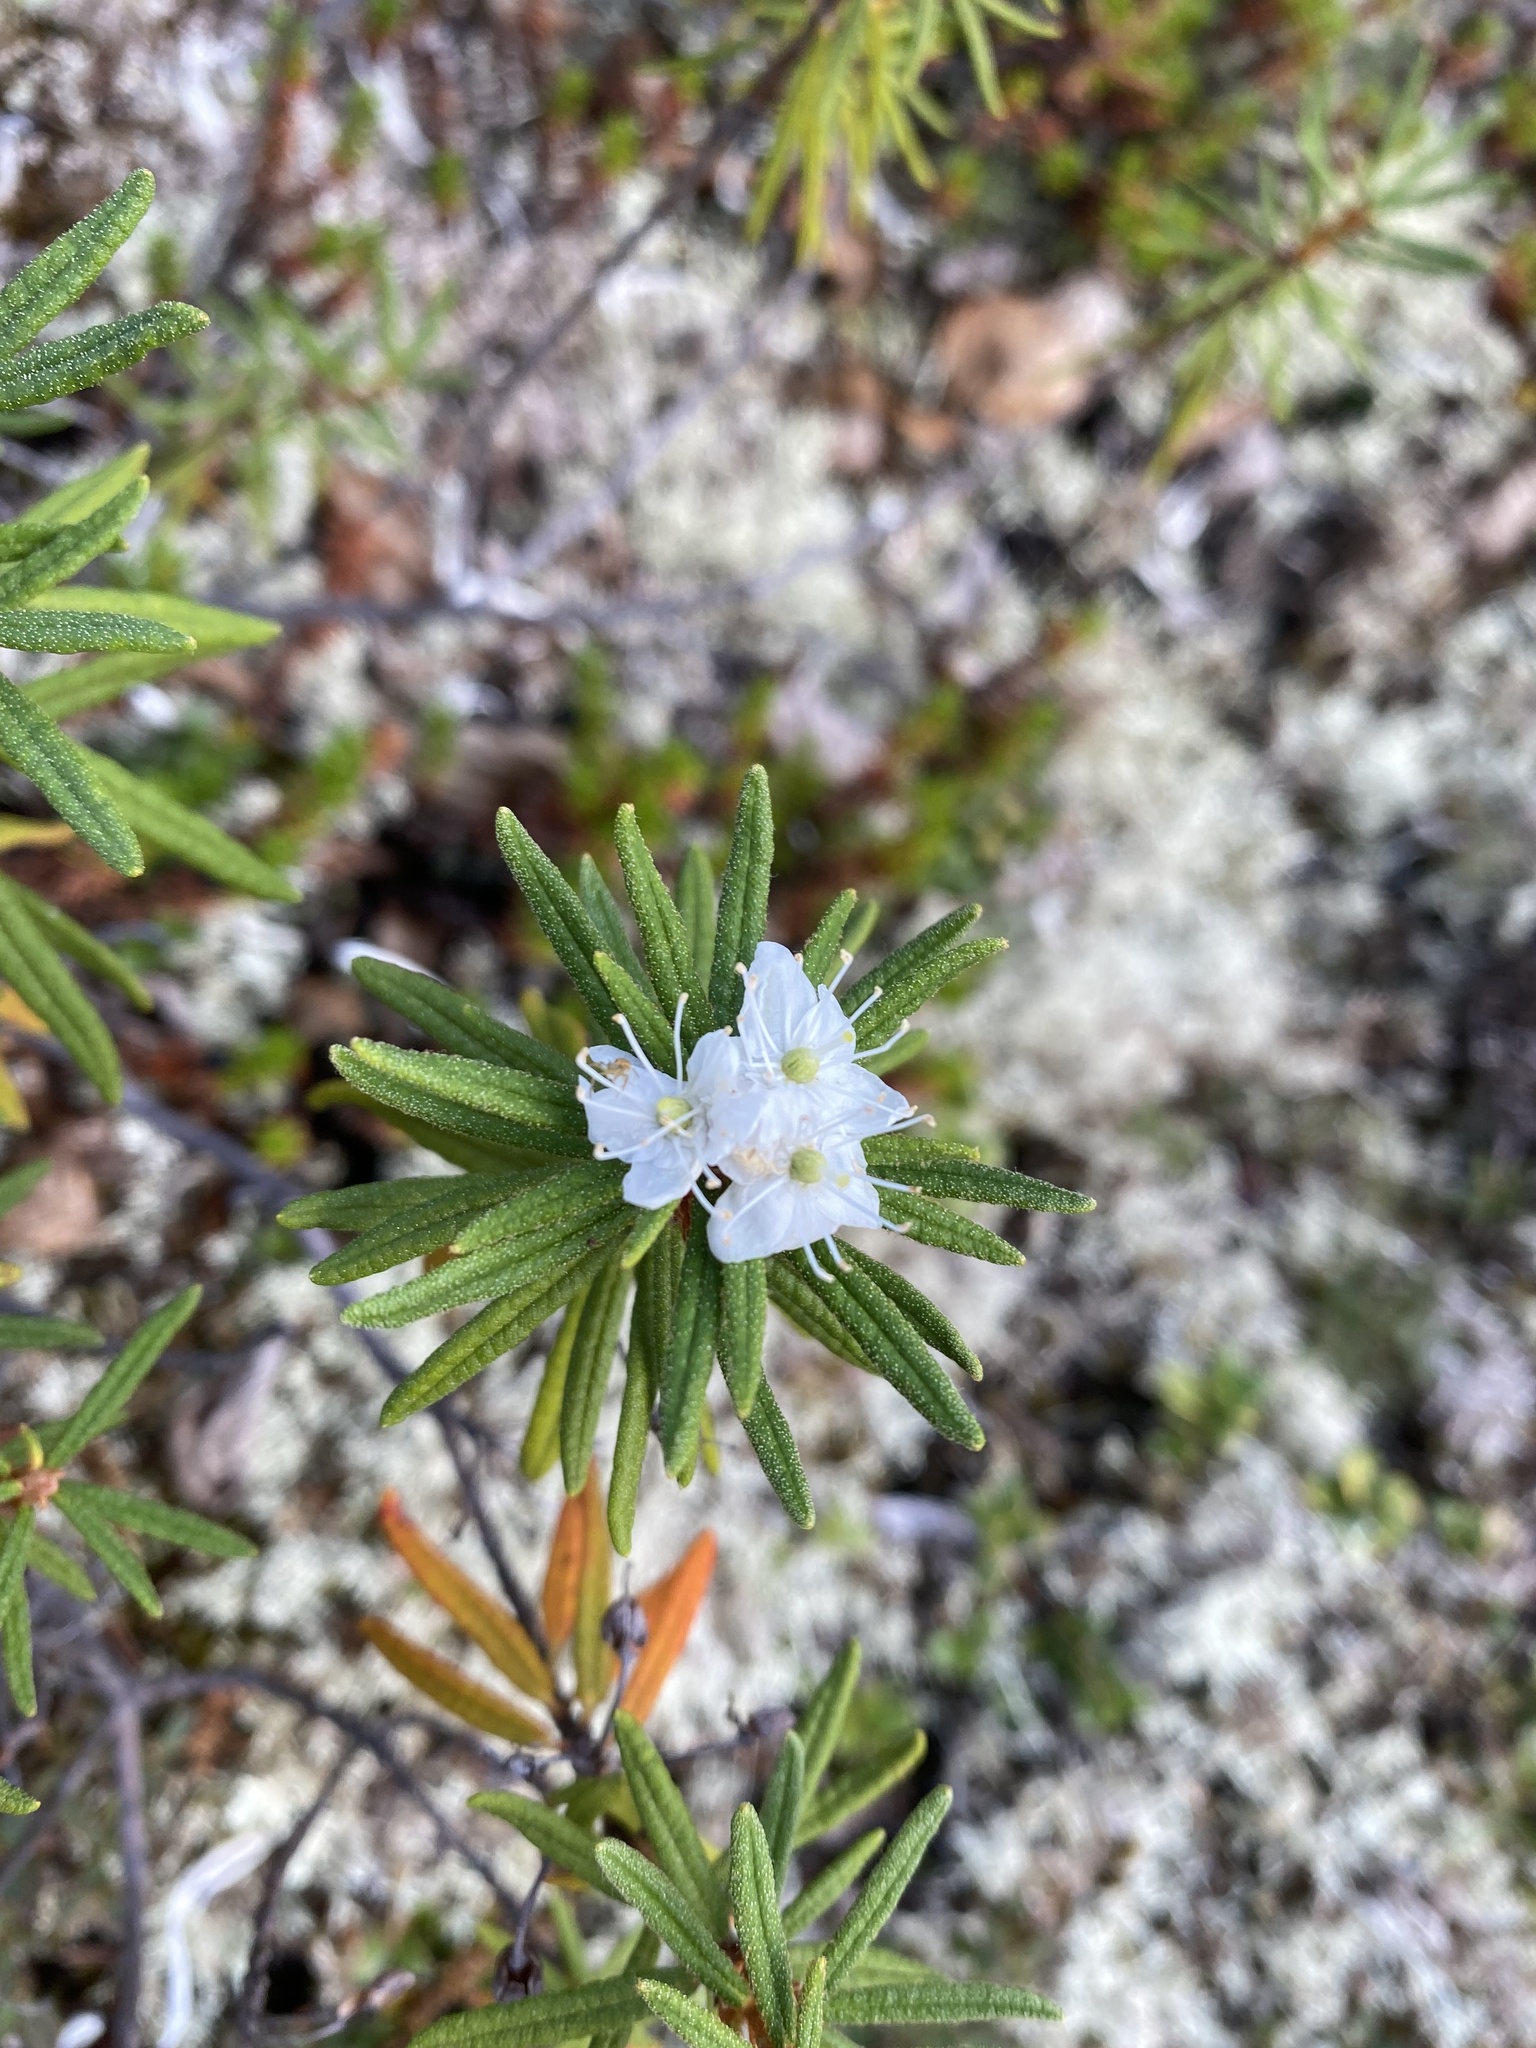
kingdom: Plantae
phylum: Tracheophyta
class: Magnoliopsida
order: Ericales
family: Ericaceae
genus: Rhododendron
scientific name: Rhododendron tomentosum
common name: Marsh labrador tea
